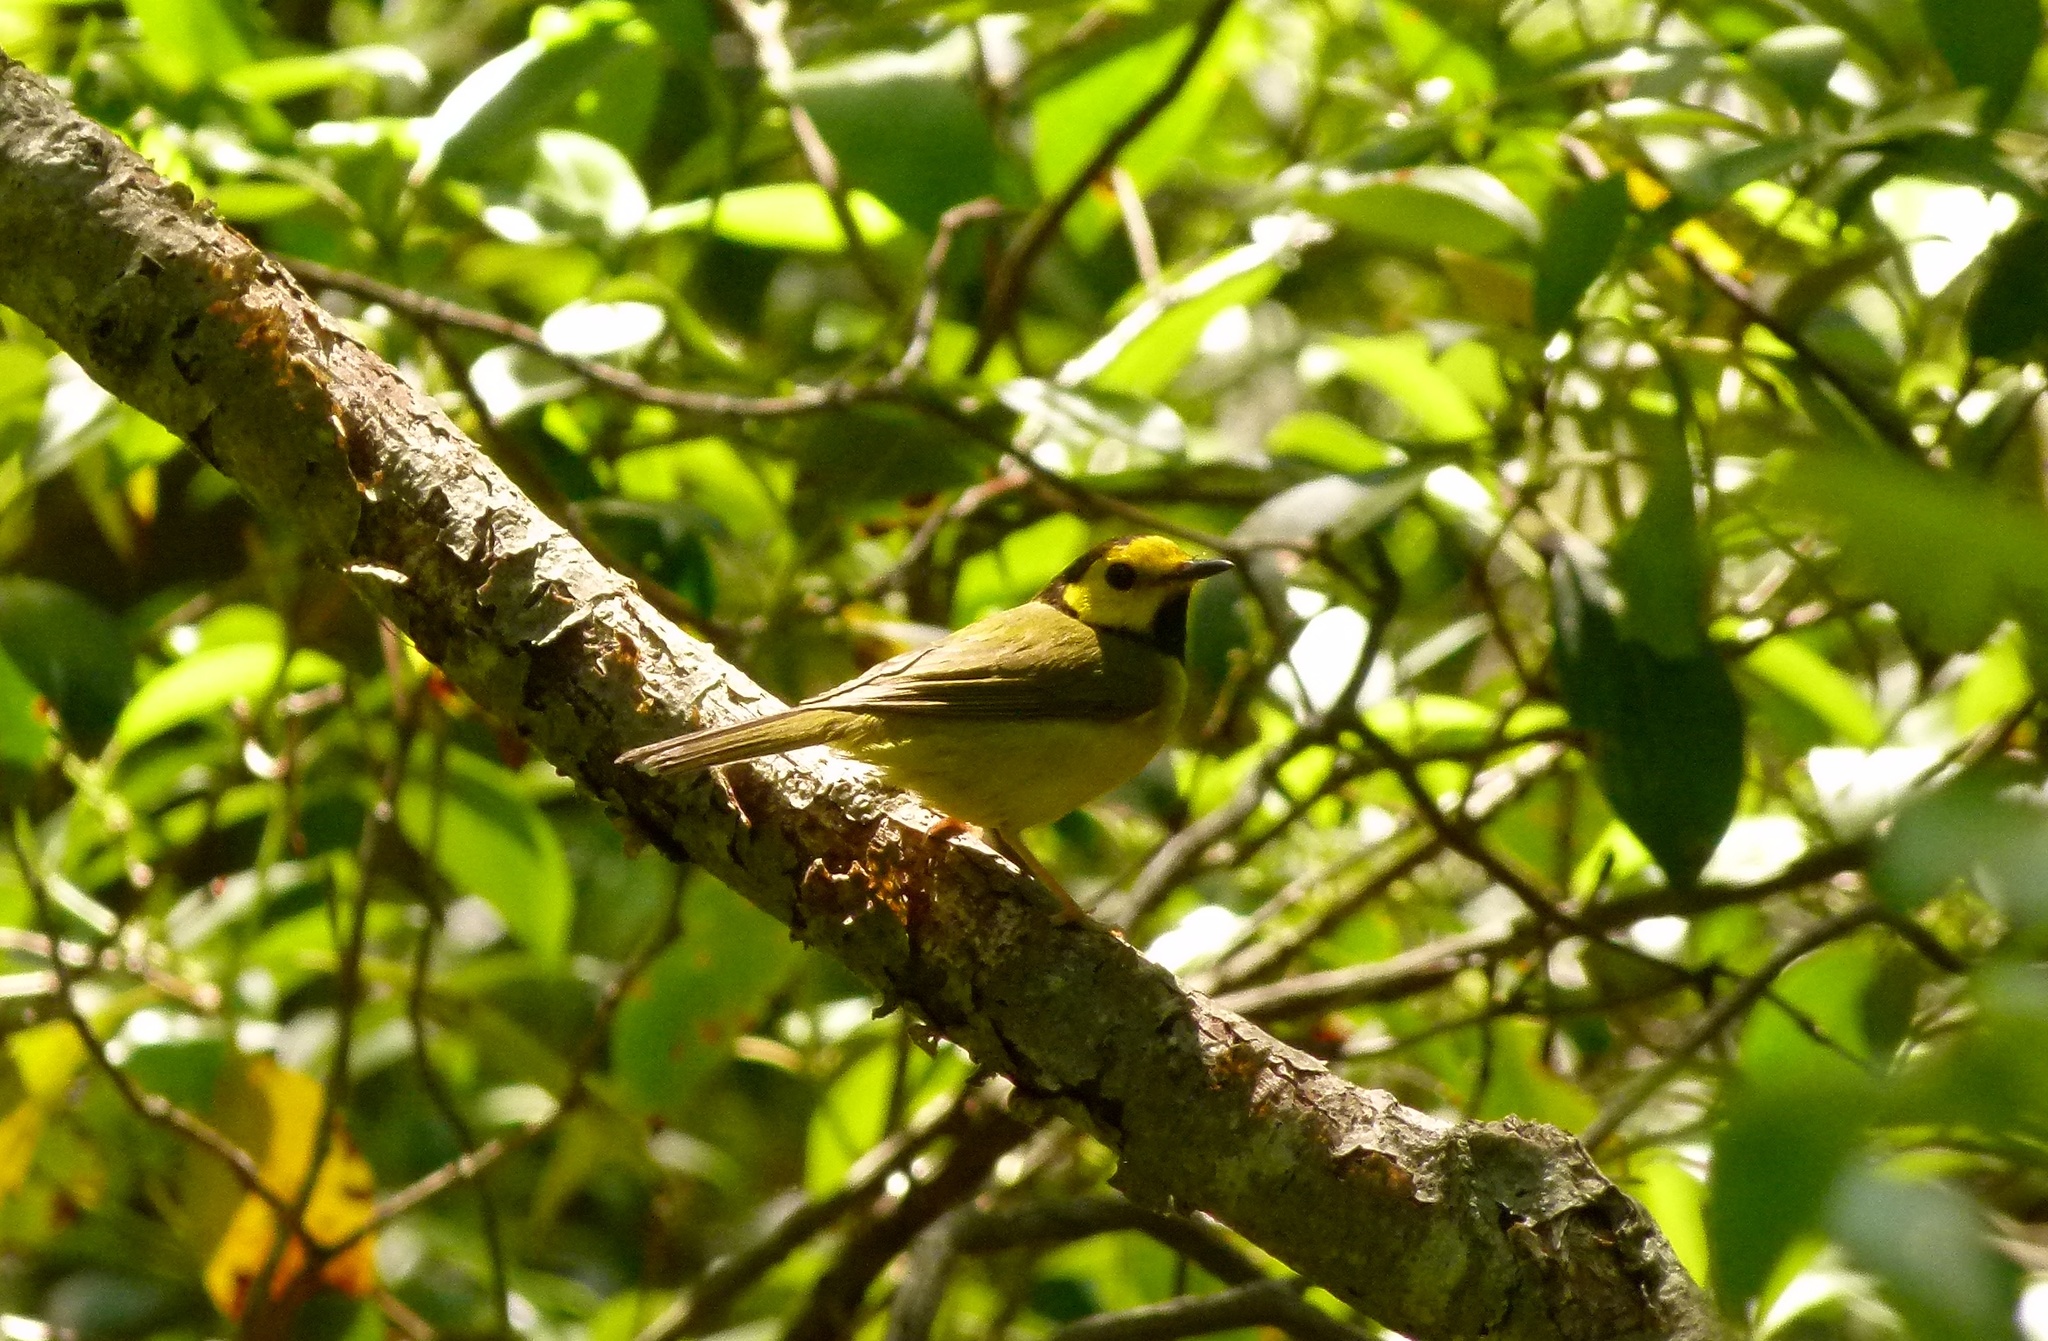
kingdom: Animalia
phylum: Chordata
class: Aves
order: Passeriformes
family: Parulidae
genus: Setophaga
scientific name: Setophaga citrina
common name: Hooded warbler
